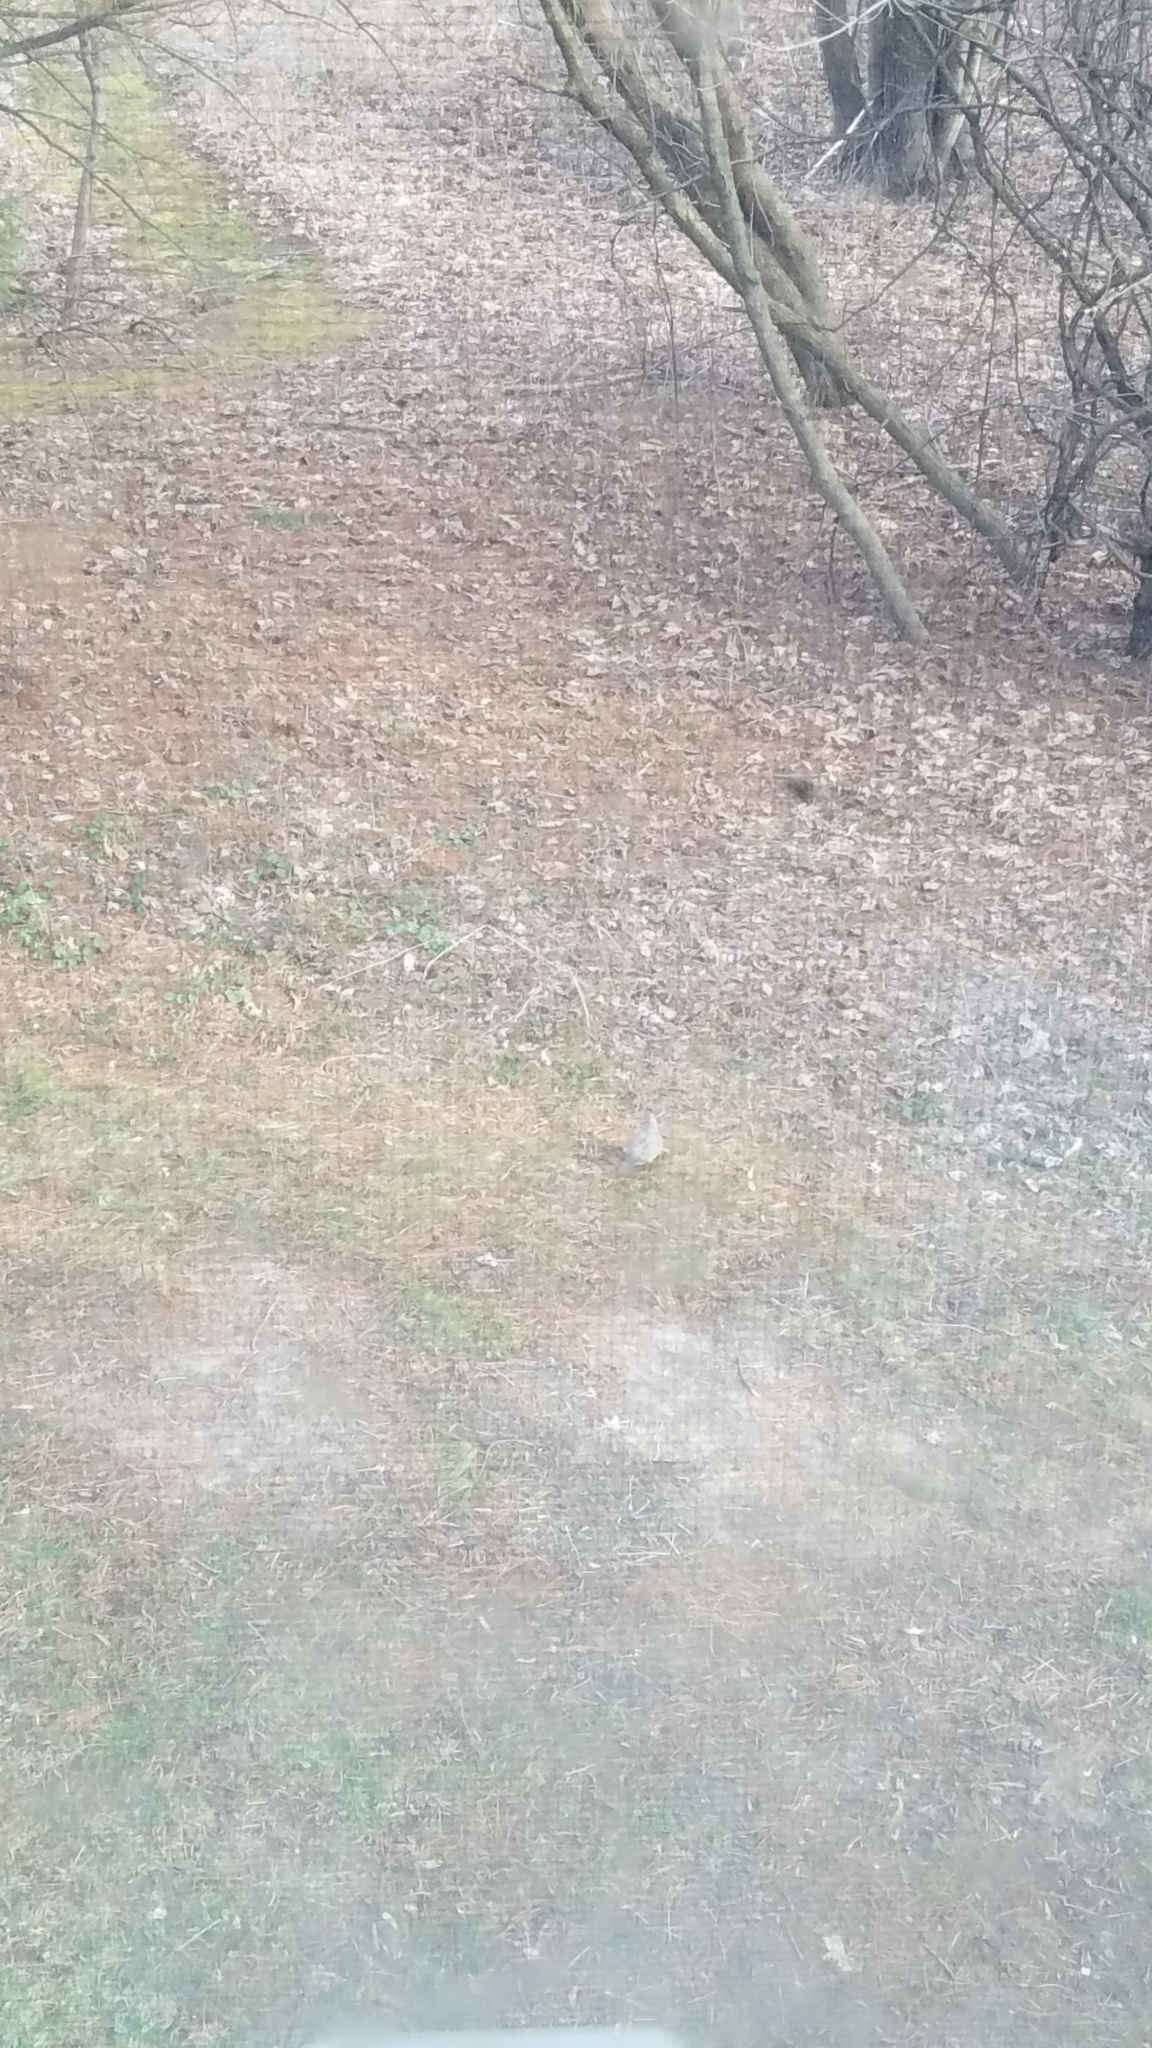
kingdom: Animalia
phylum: Chordata
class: Aves
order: Columbiformes
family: Columbidae
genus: Zenaida
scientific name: Zenaida macroura
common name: Mourning dove
